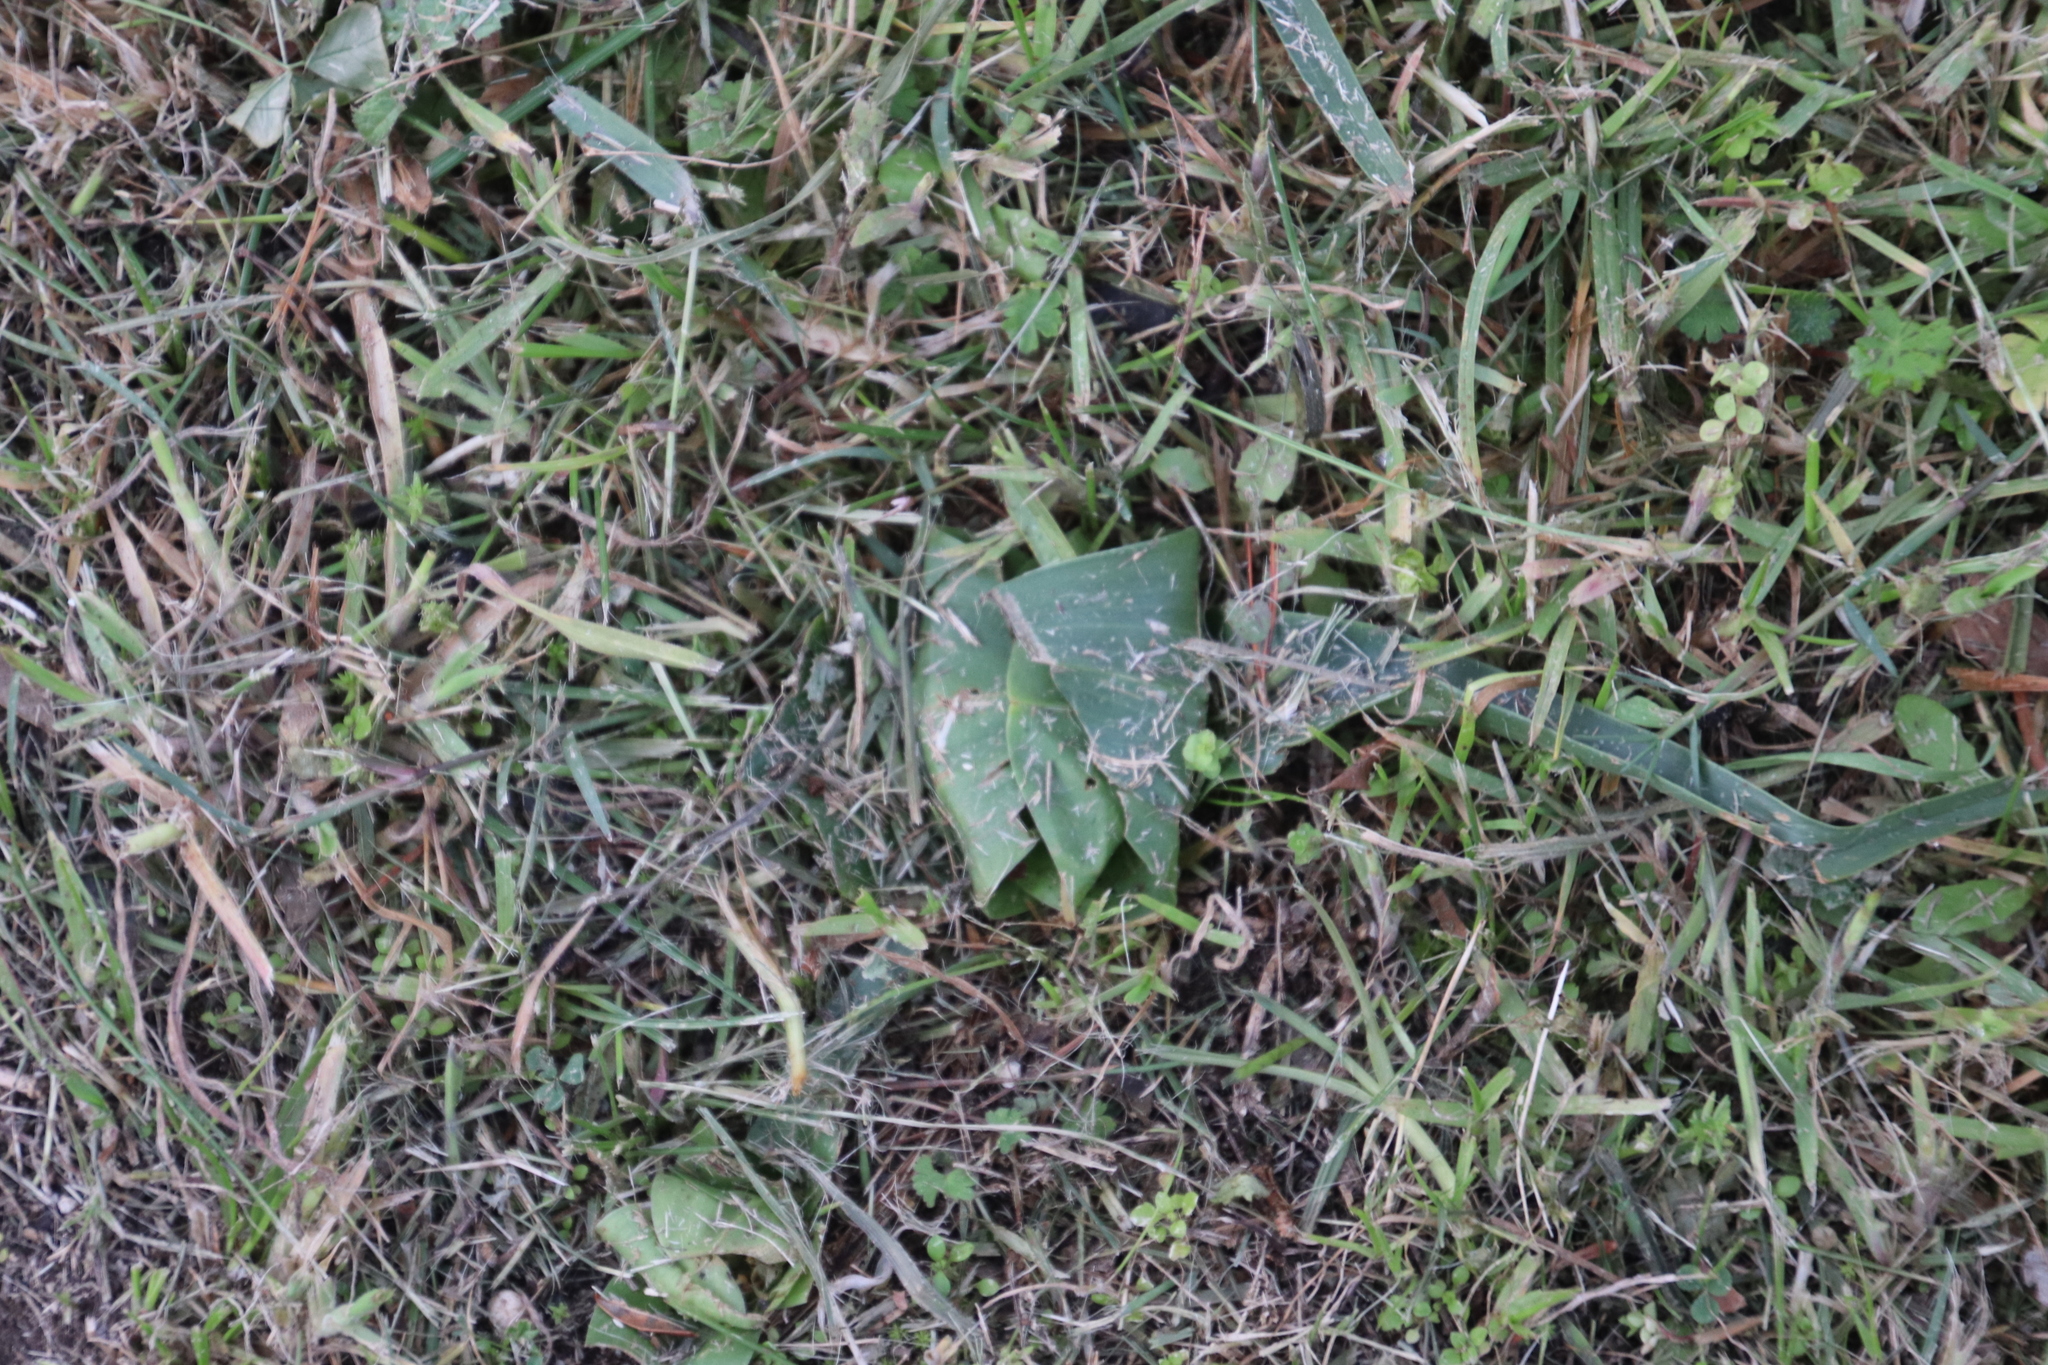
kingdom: Plantae
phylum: Tracheophyta
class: Liliopsida
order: Liliales
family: Colchicaceae
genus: Colchicum
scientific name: Colchicum eucomoides
